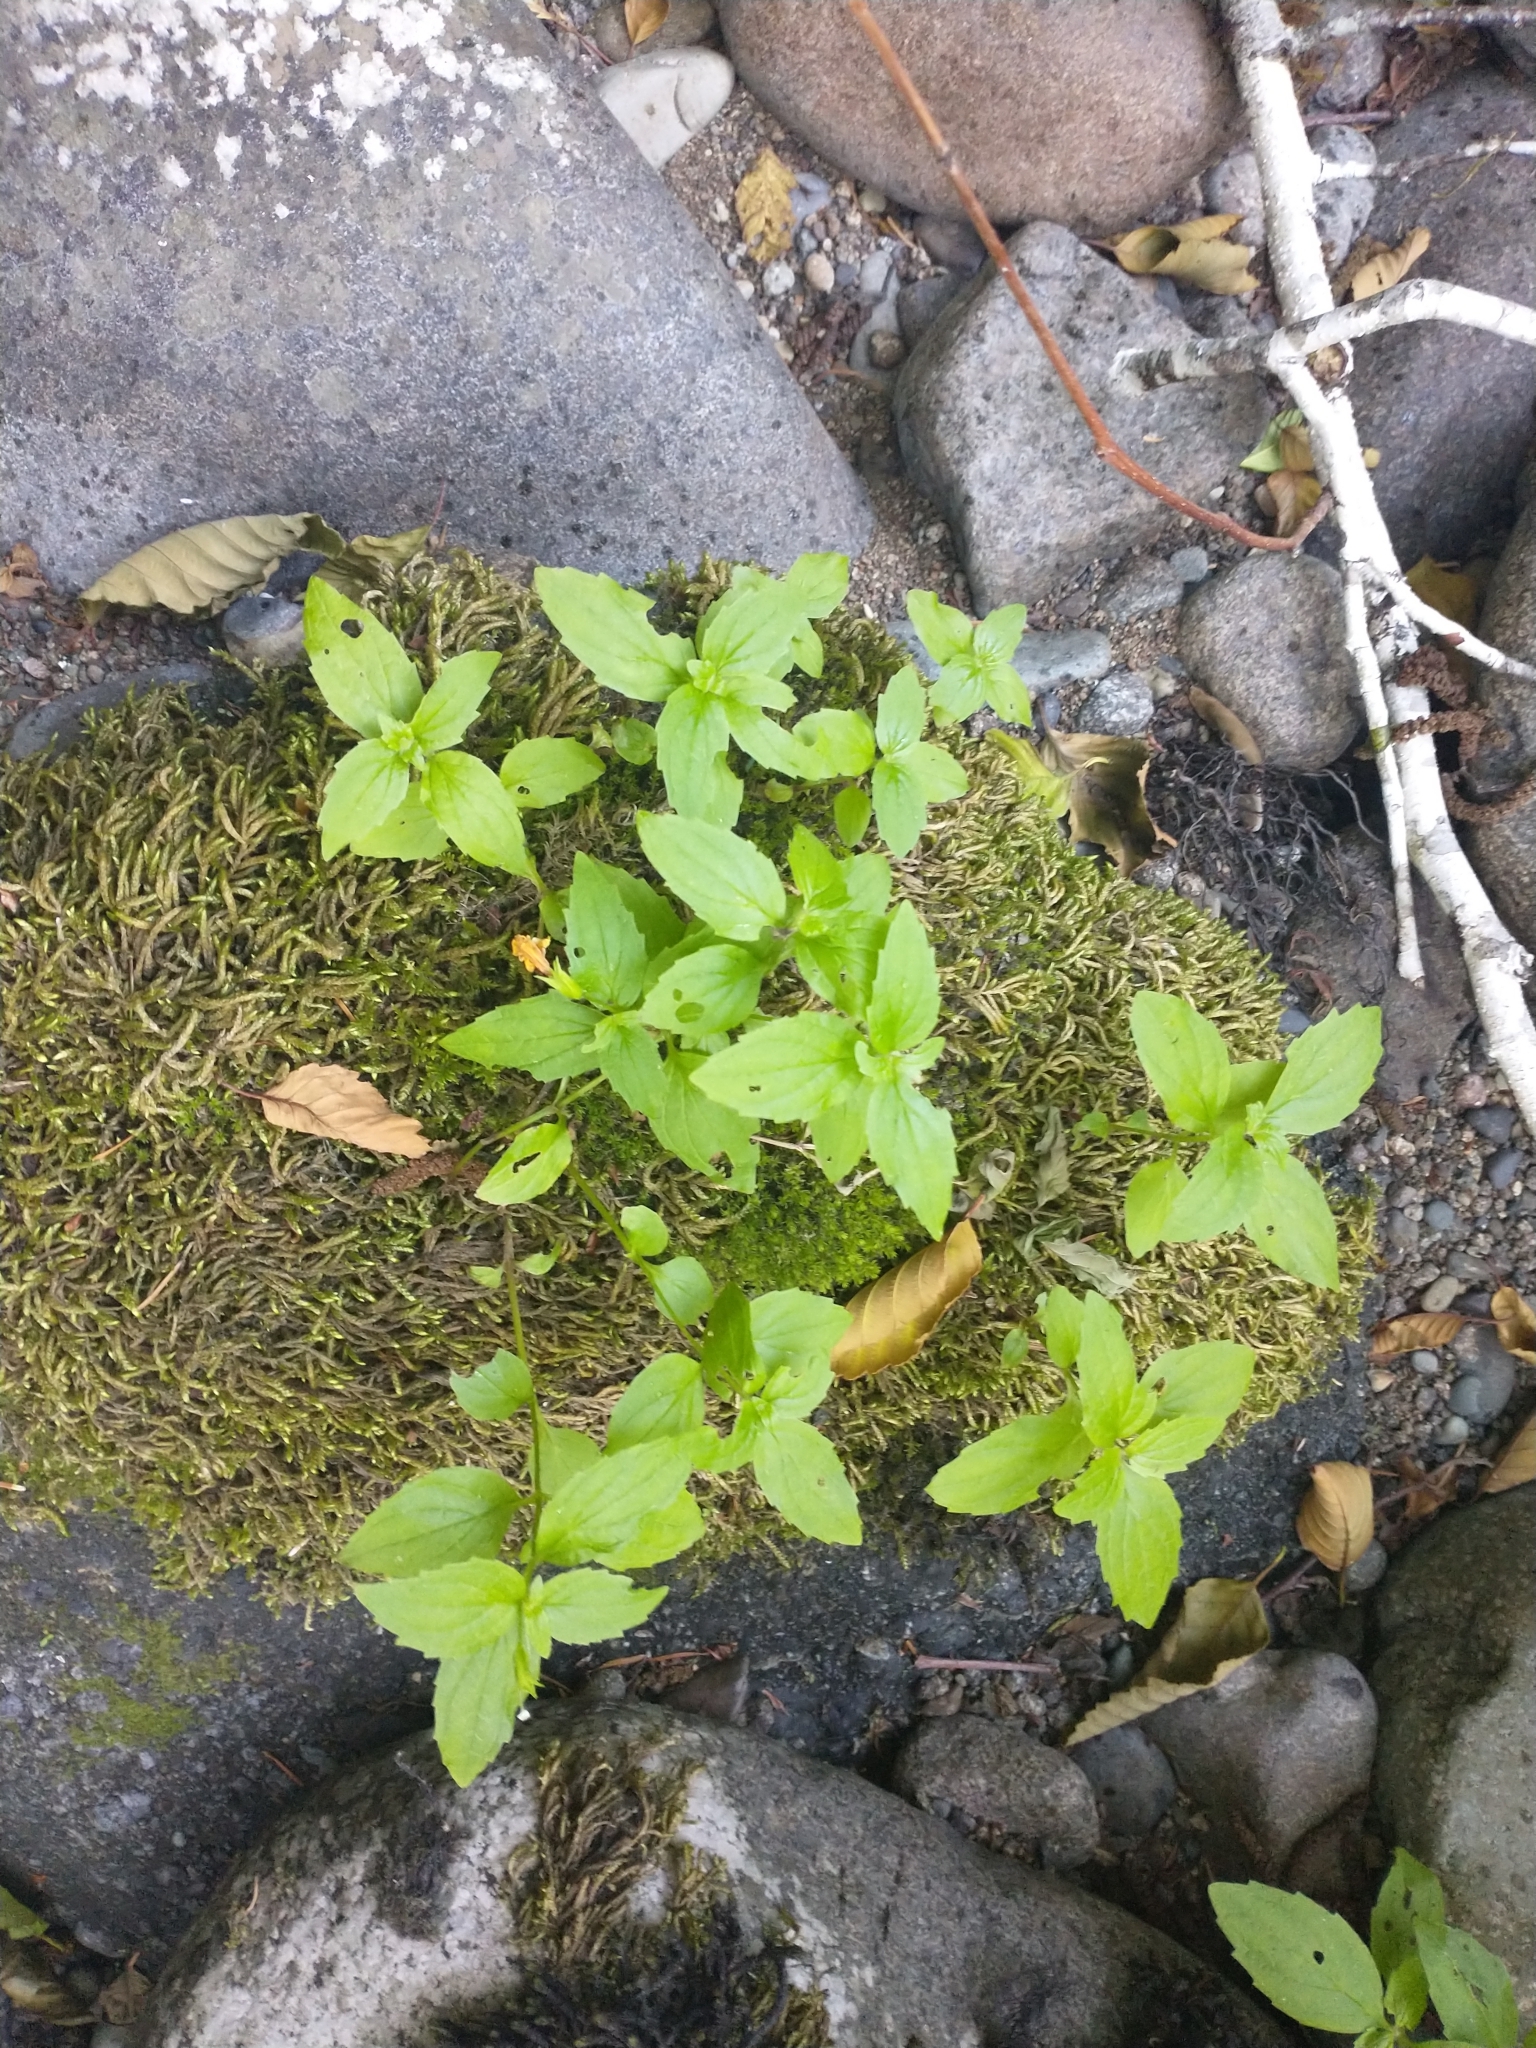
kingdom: Plantae
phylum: Tracheophyta
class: Magnoliopsida
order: Lamiales
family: Phrymaceae
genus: Erythranthe
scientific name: Erythranthe dentata
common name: Coastal monkeyflower
